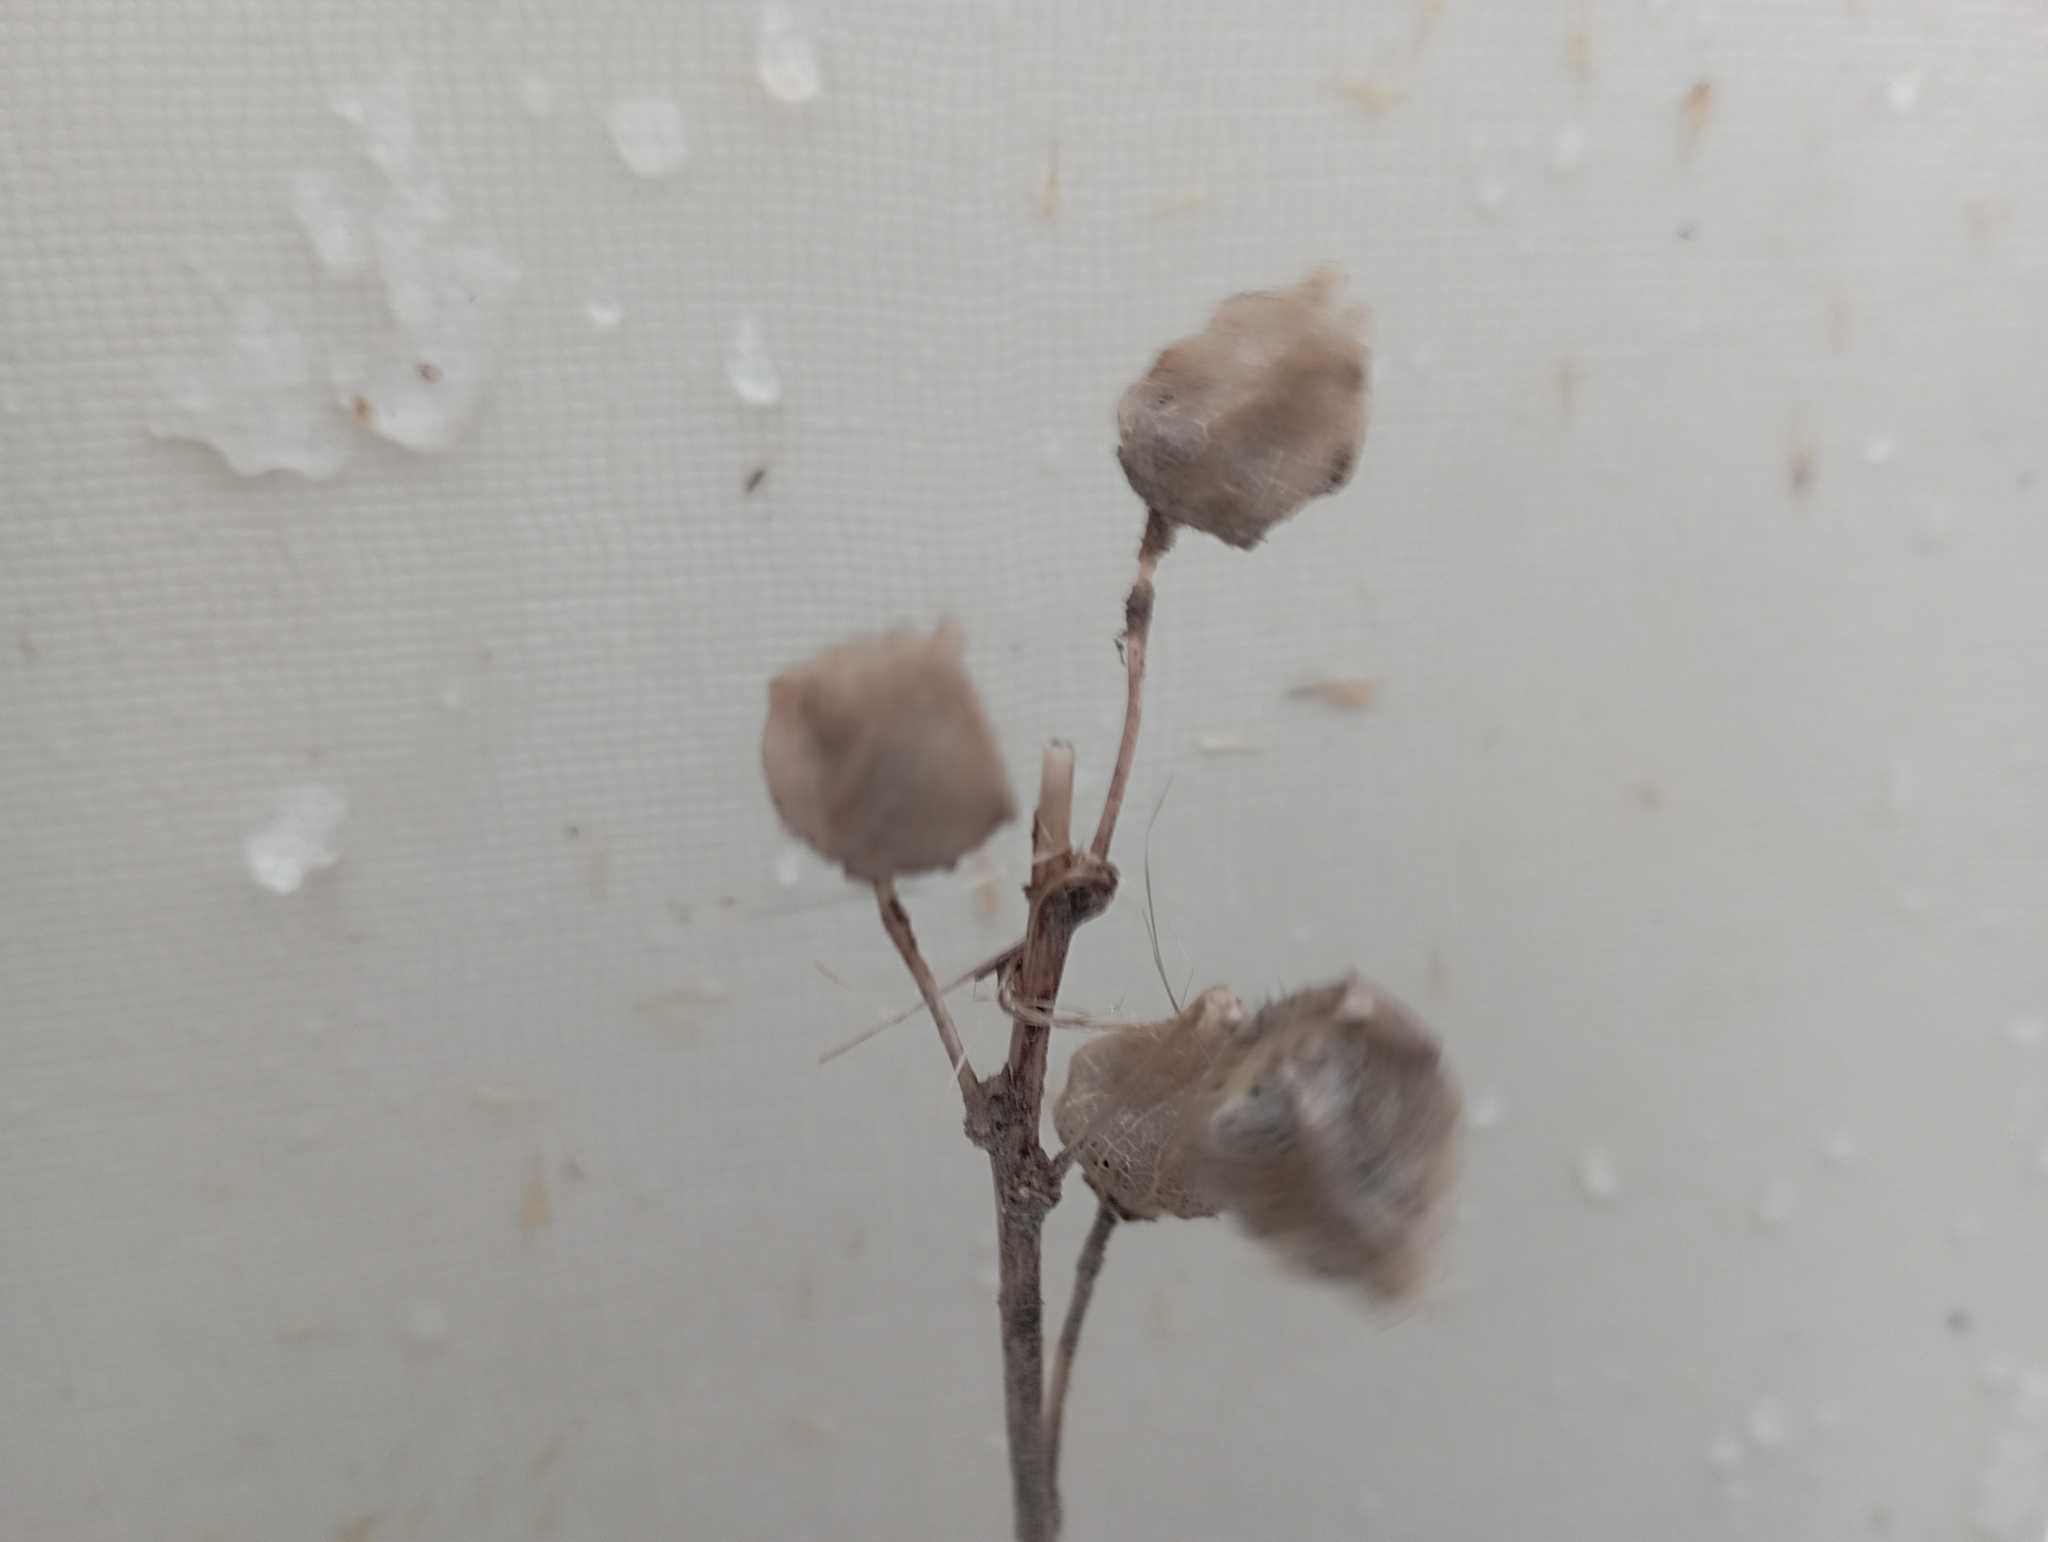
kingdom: Plantae
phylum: Tracheophyta
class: Magnoliopsida
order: Malvales
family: Malvaceae
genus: Malva
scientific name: Malva thuringiaca
